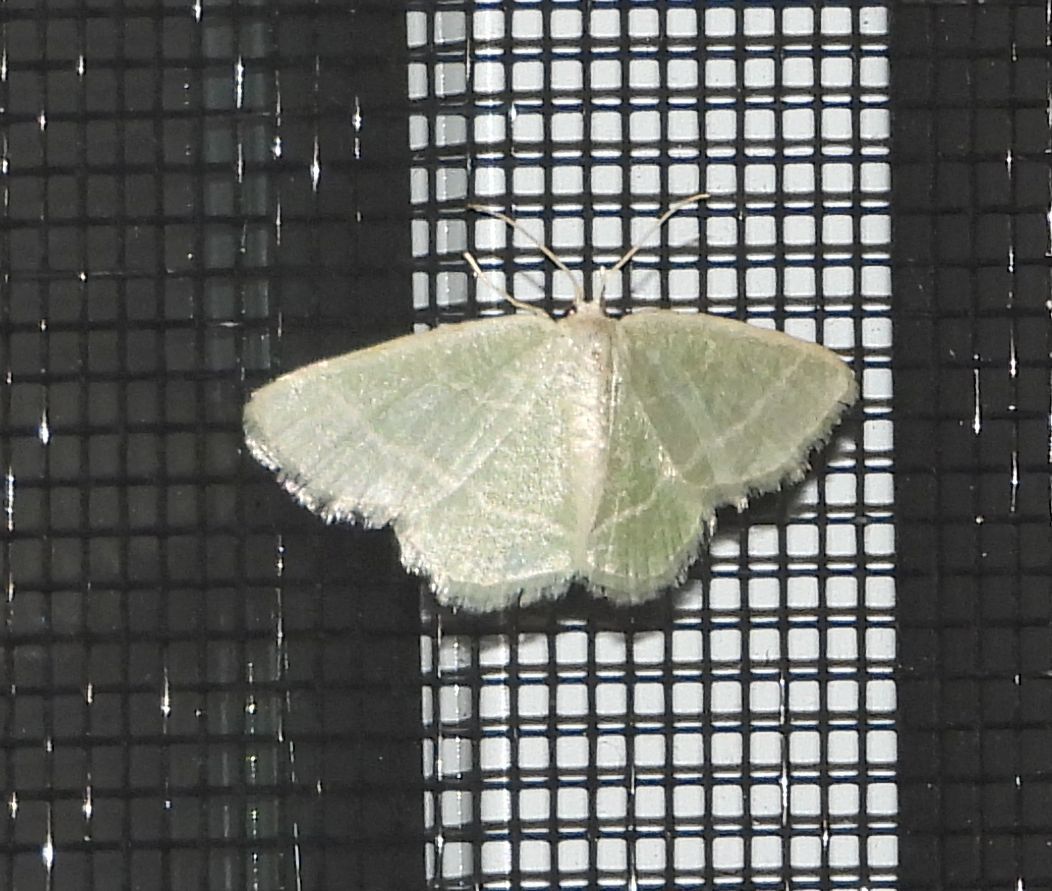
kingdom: Animalia
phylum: Arthropoda
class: Insecta
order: Lepidoptera
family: Geometridae
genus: Chlorochlamys
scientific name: Chlorochlamys chloroleucaria
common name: Blackberry looper
